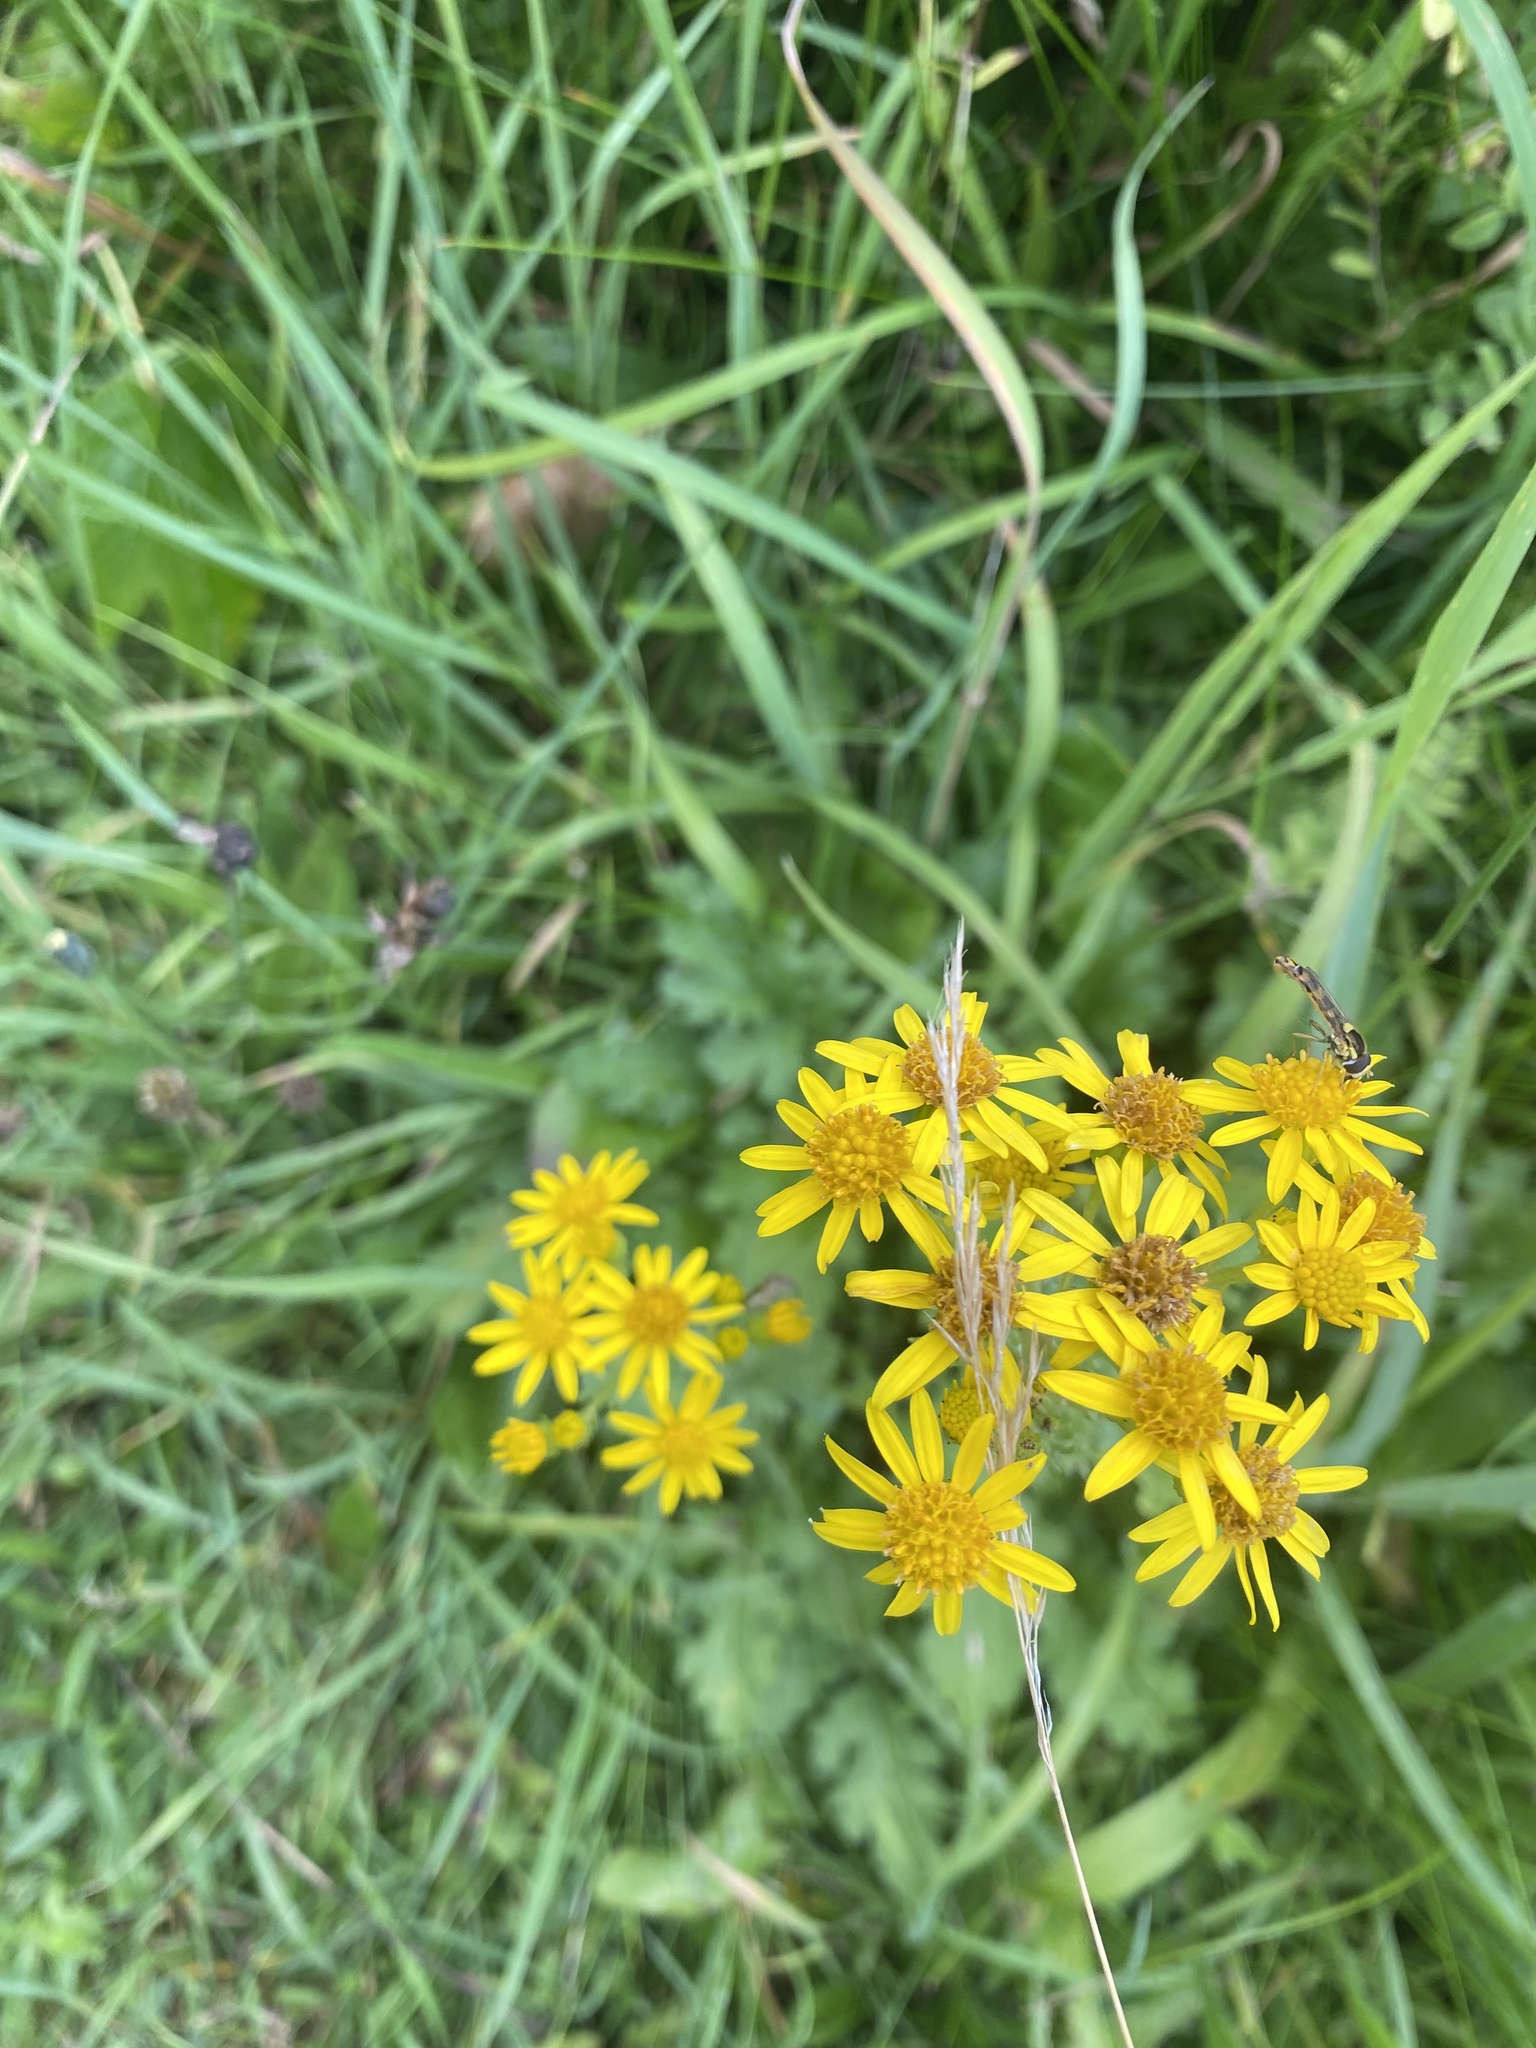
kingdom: Plantae
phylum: Tracheophyta
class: Magnoliopsida
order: Asterales
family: Asteraceae
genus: Jacobaea
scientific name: Jacobaea vulgaris
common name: Stinking willie
